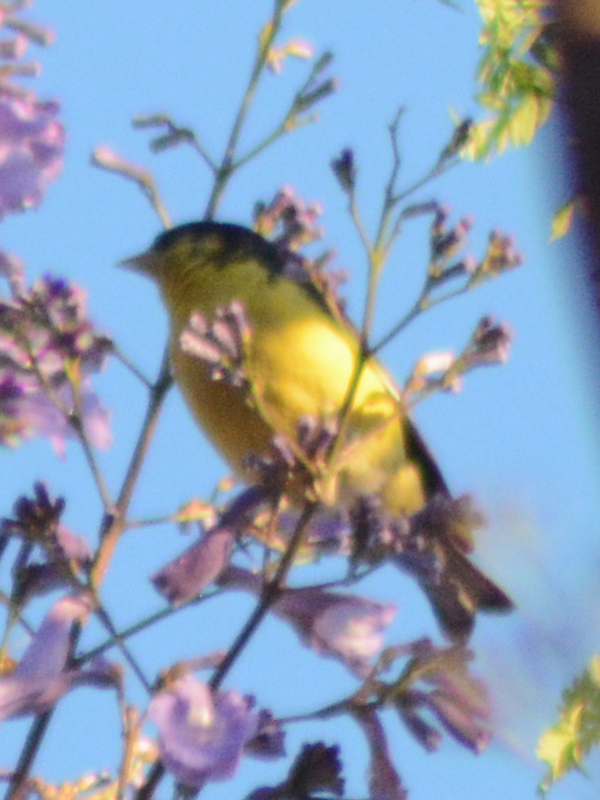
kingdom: Animalia
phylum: Chordata
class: Aves
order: Passeriformes
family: Fringillidae
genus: Spinus
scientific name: Spinus psaltria
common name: Lesser goldfinch
